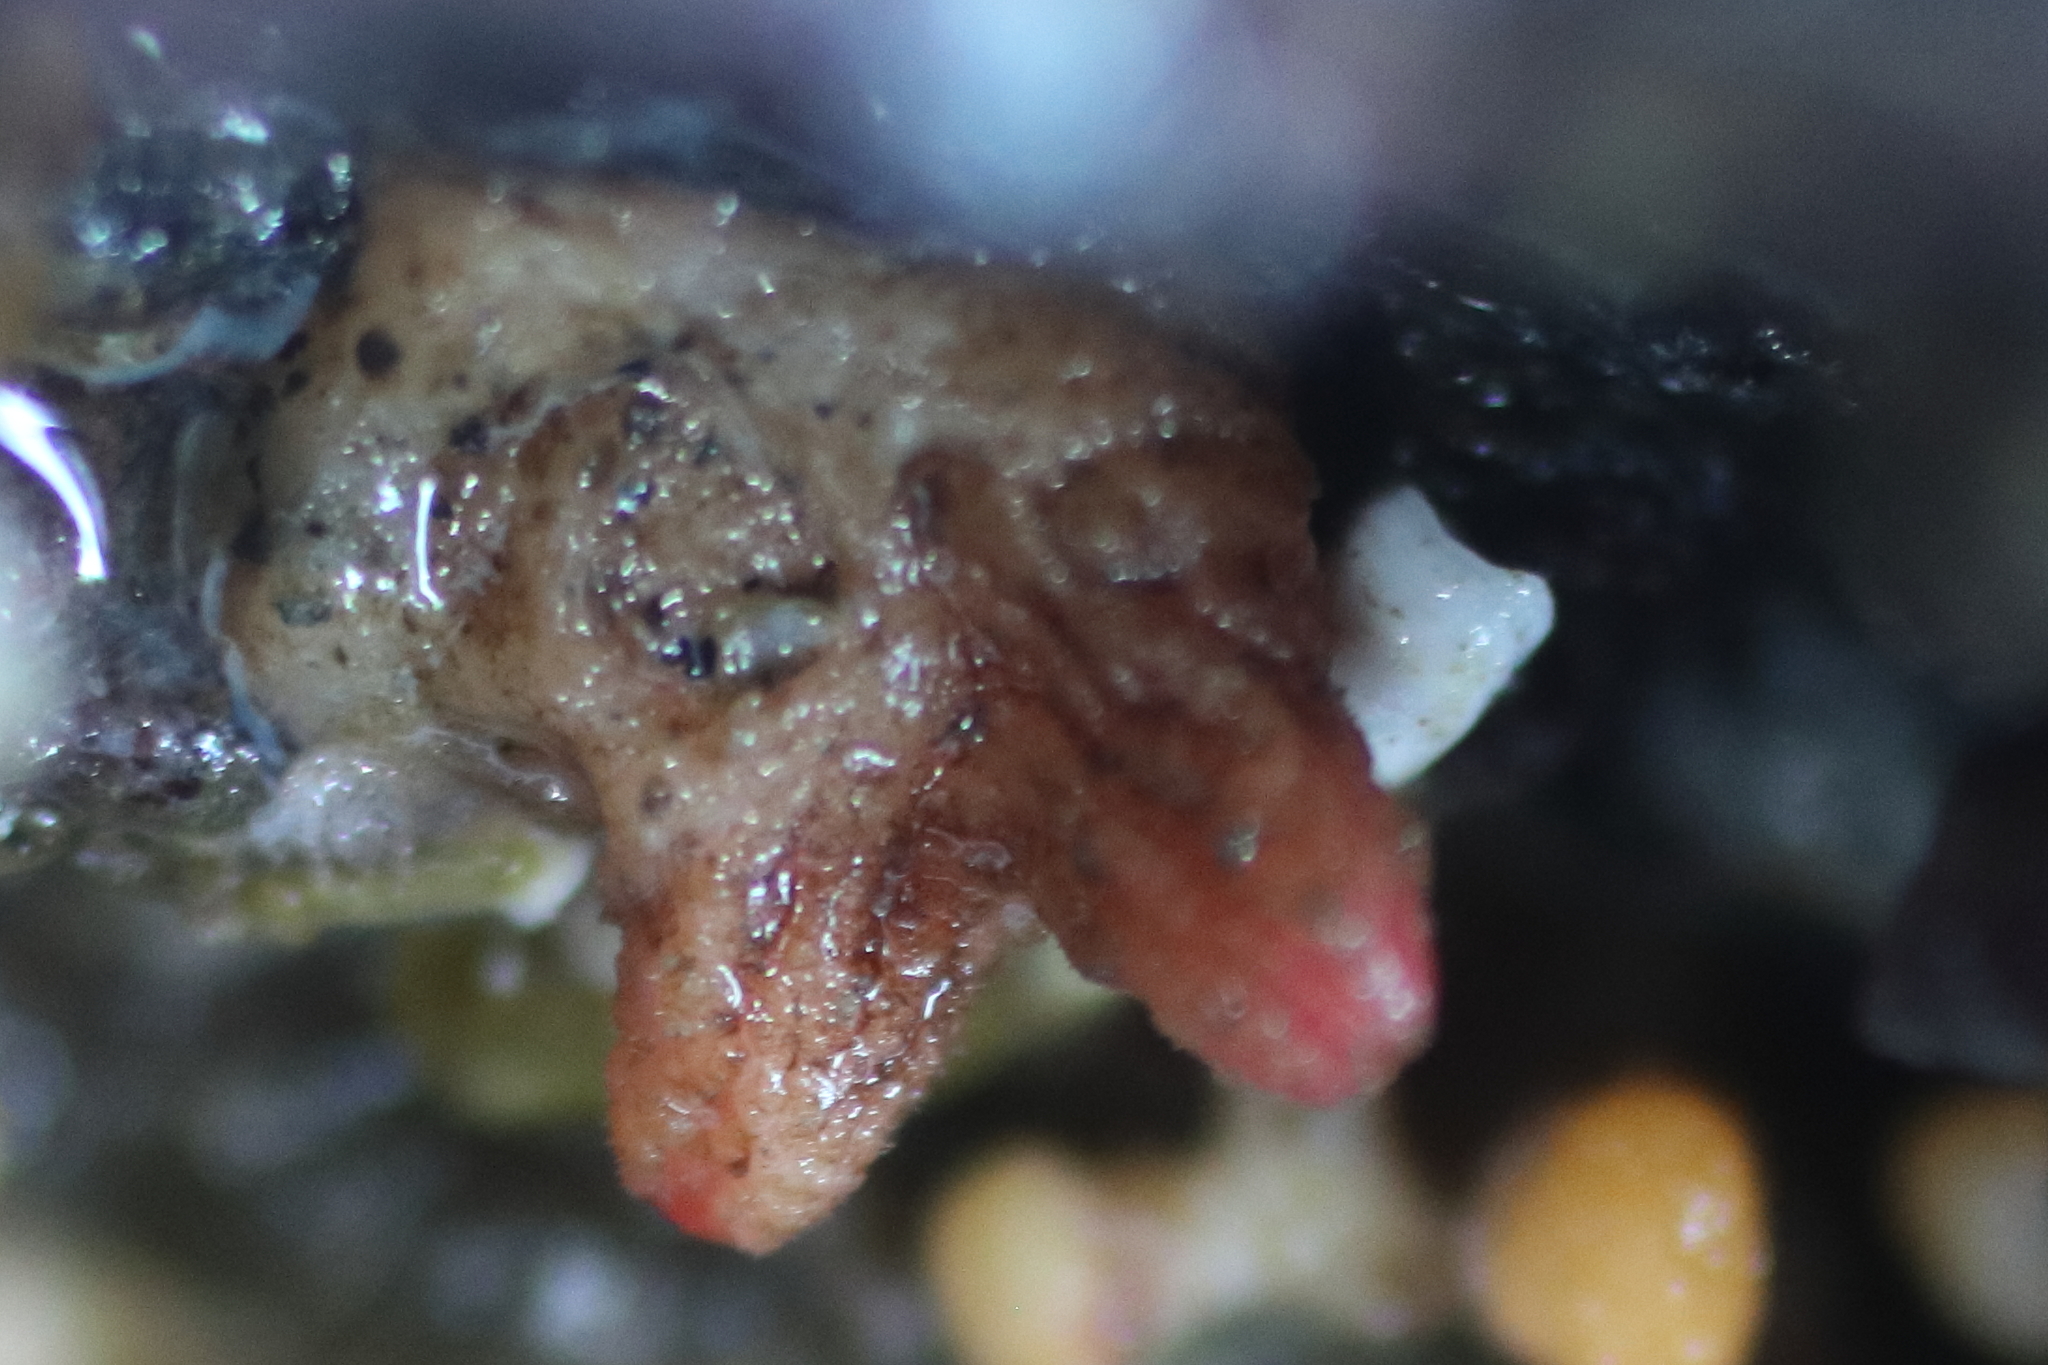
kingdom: Animalia
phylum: Chordata
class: Ascidiacea
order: Stolidobranchia
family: Pyuridae
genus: Pyura
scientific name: Pyura haustor
